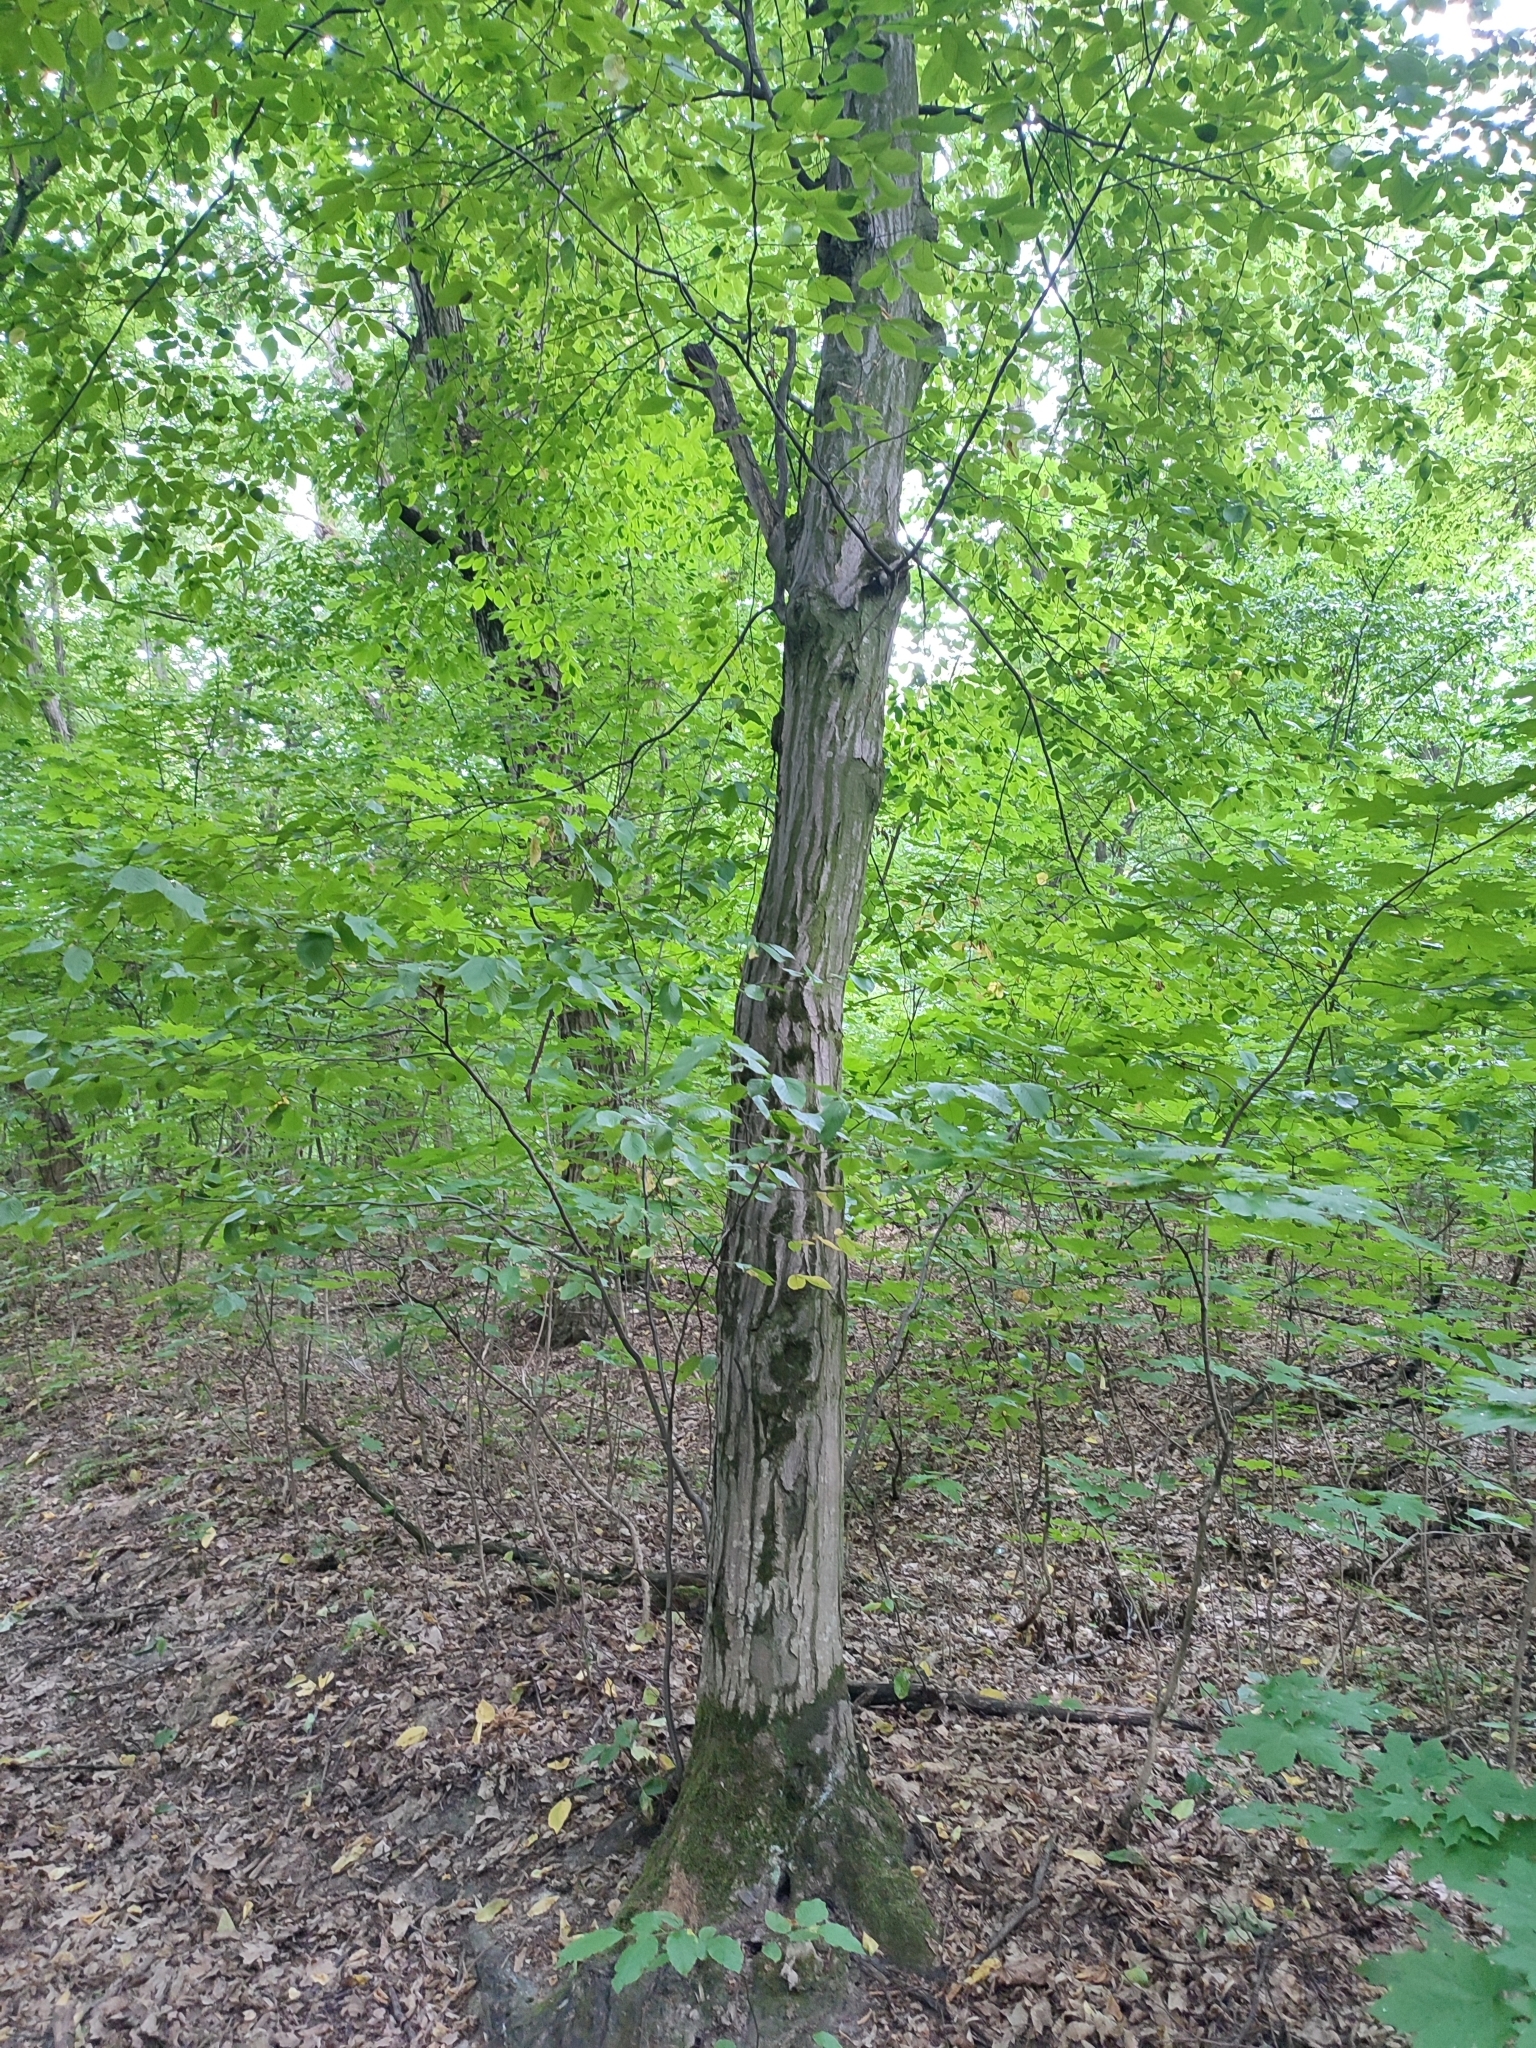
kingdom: Plantae
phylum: Tracheophyta
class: Magnoliopsida
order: Fagales
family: Betulaceae
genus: Carpinus
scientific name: Carpinus betulus
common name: Hornbeam
